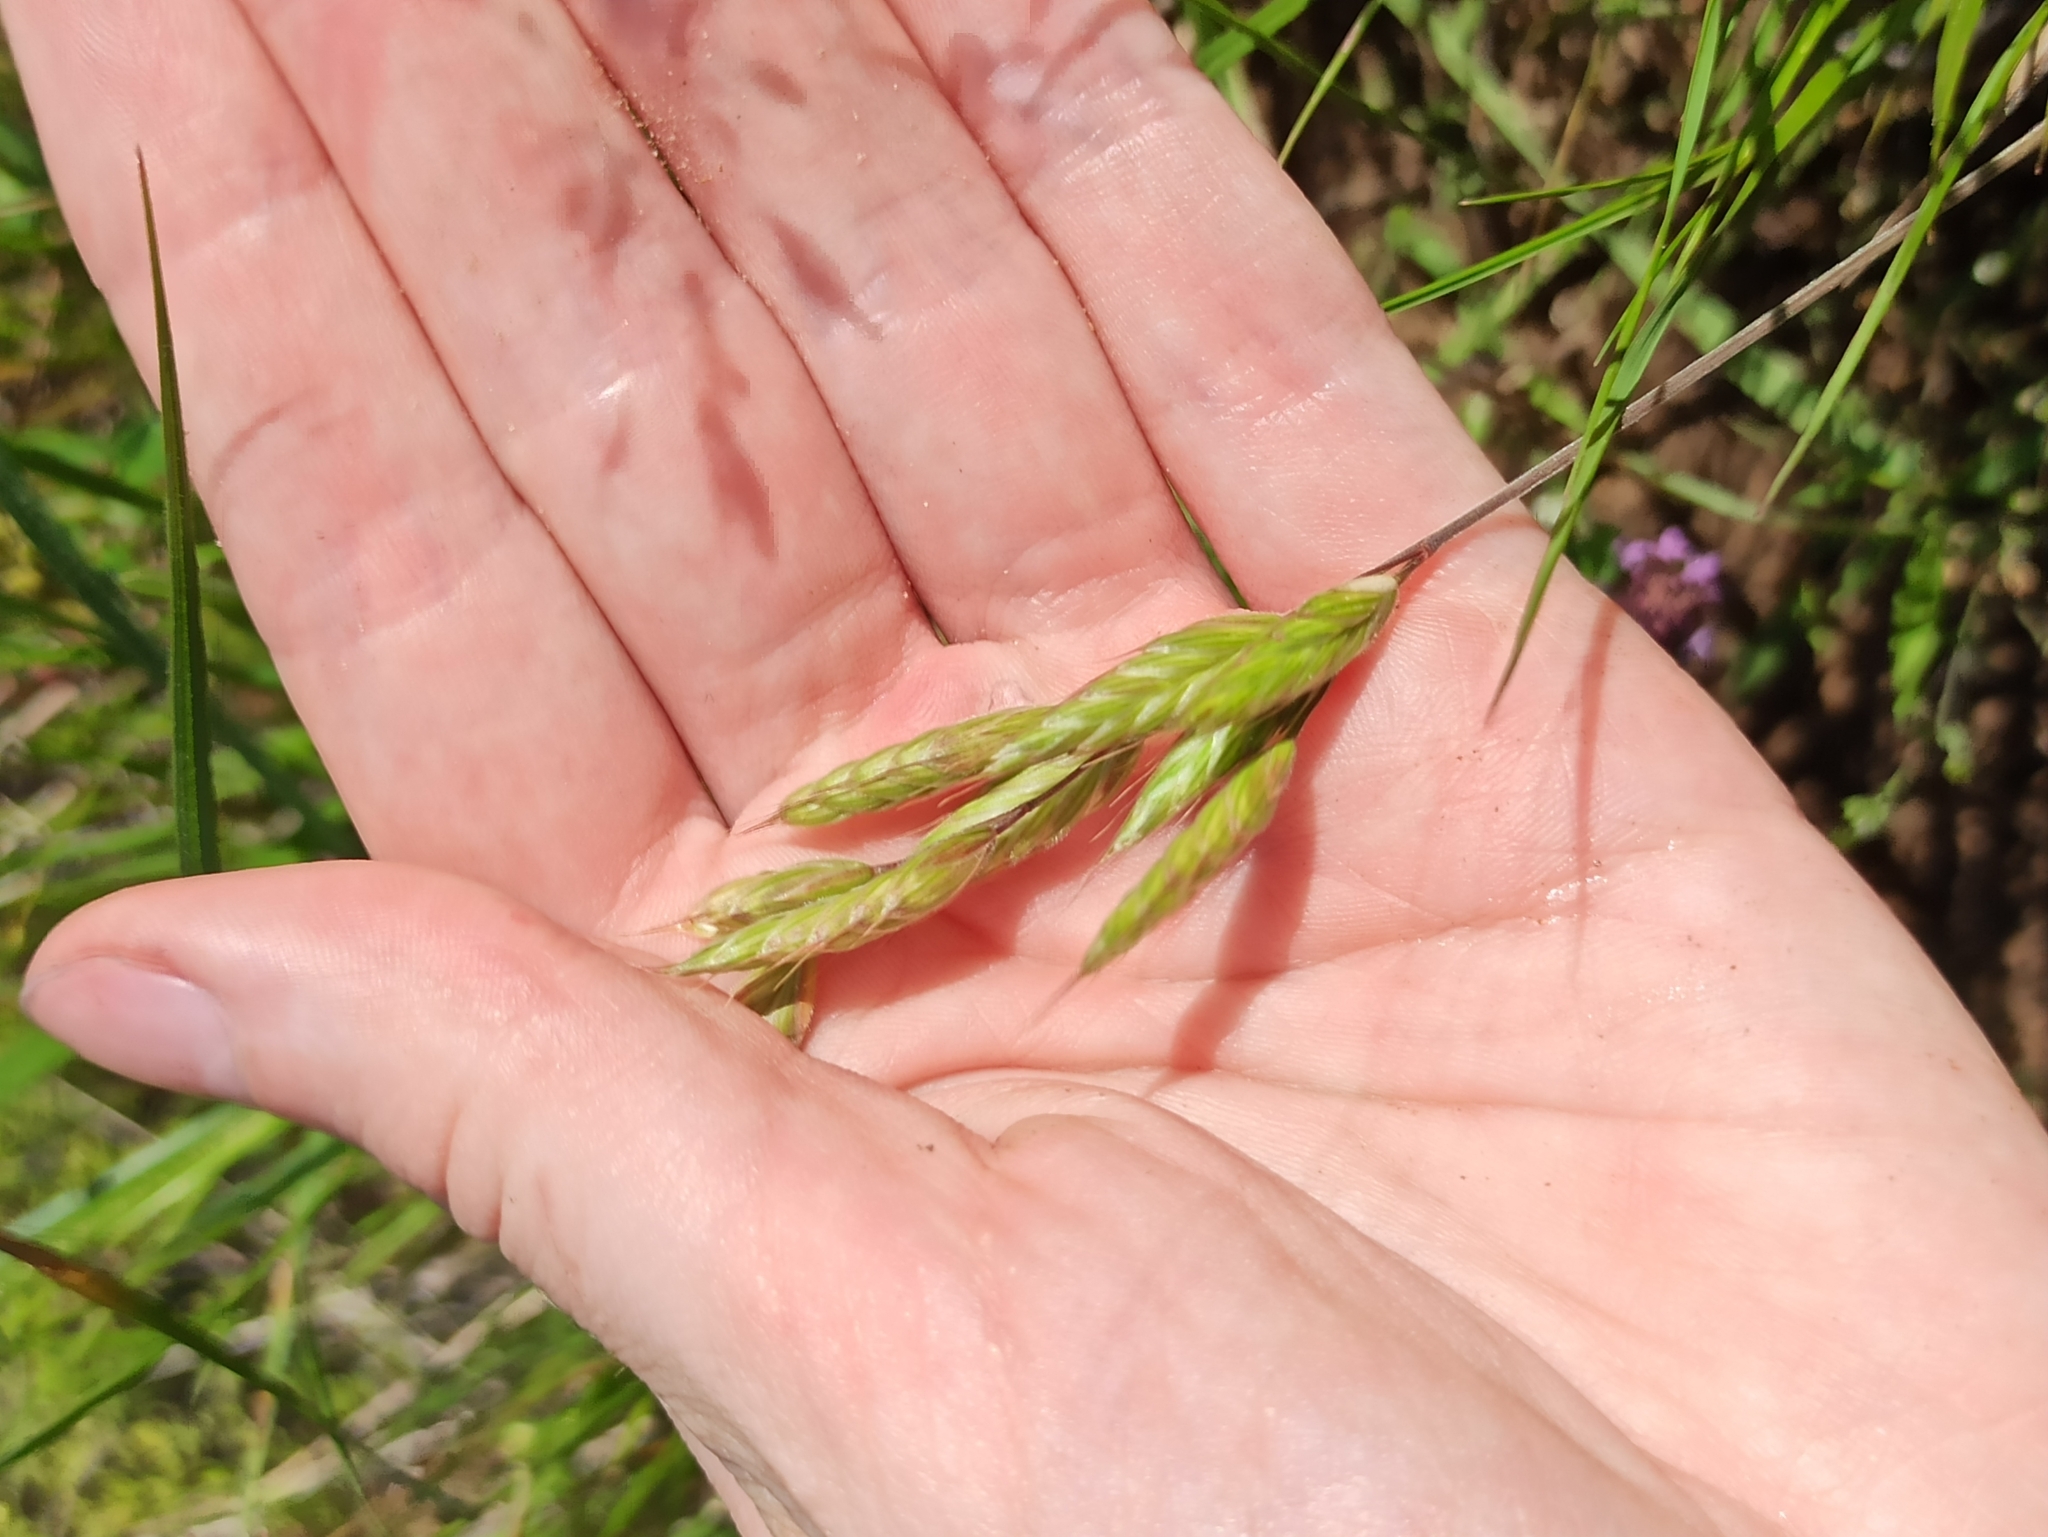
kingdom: Plantae
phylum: Tracheophyta
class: Liliopsida
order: Poales
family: Poaceae
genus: Bromus
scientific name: Bromus hordeaceus
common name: Soft brome
